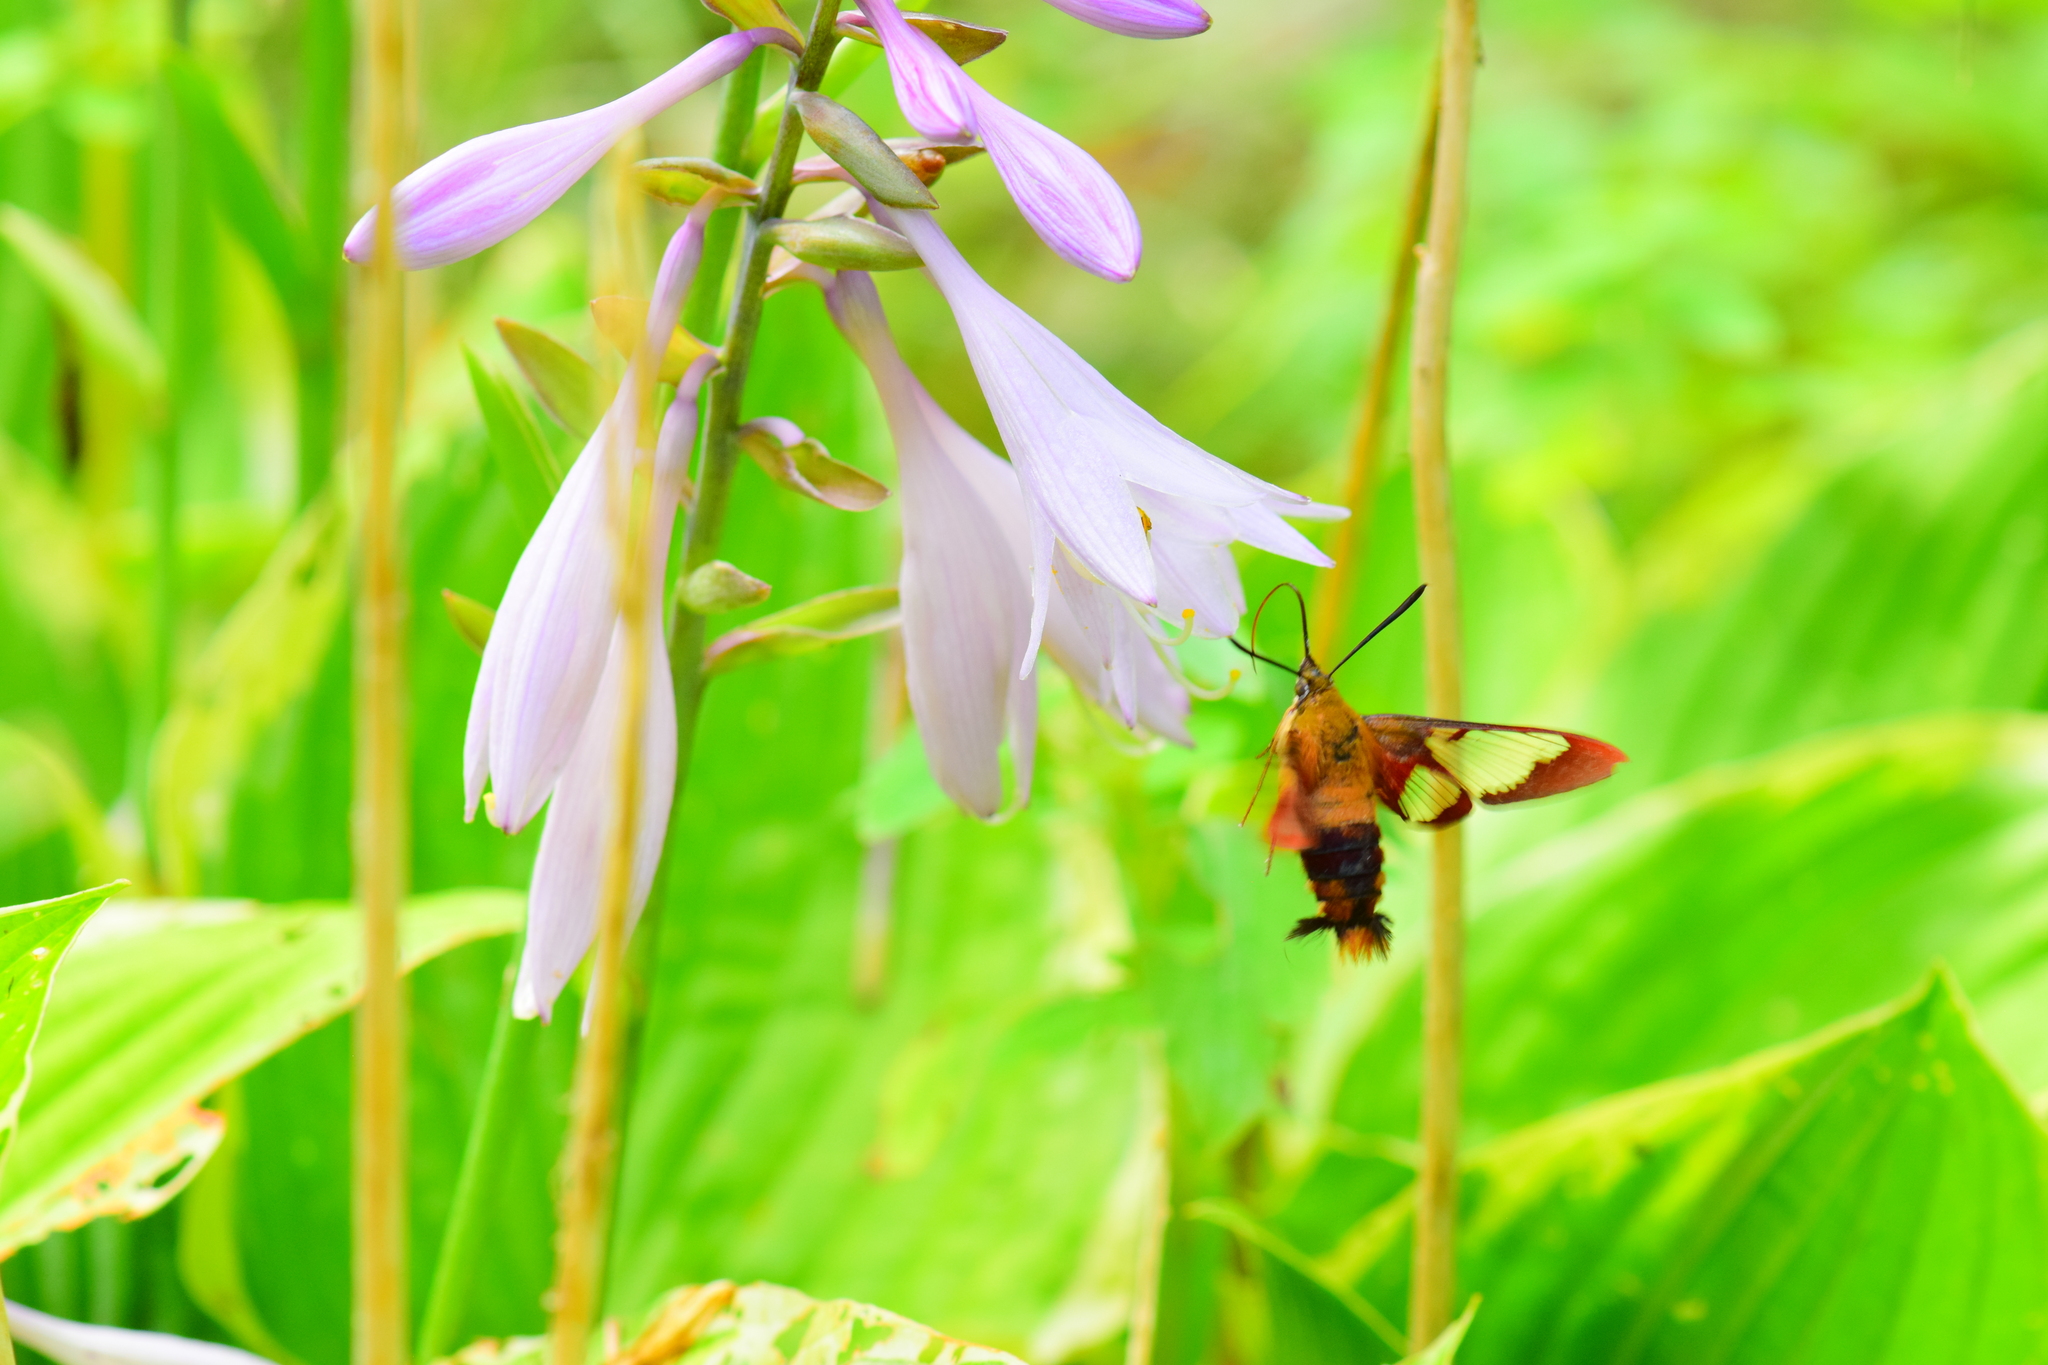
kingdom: Animalia
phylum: Arthropoda
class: Insecta
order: Lepidoptera
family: Sphingidae
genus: Hemaris
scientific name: Hemaris thysbe
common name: Common clear-wing
